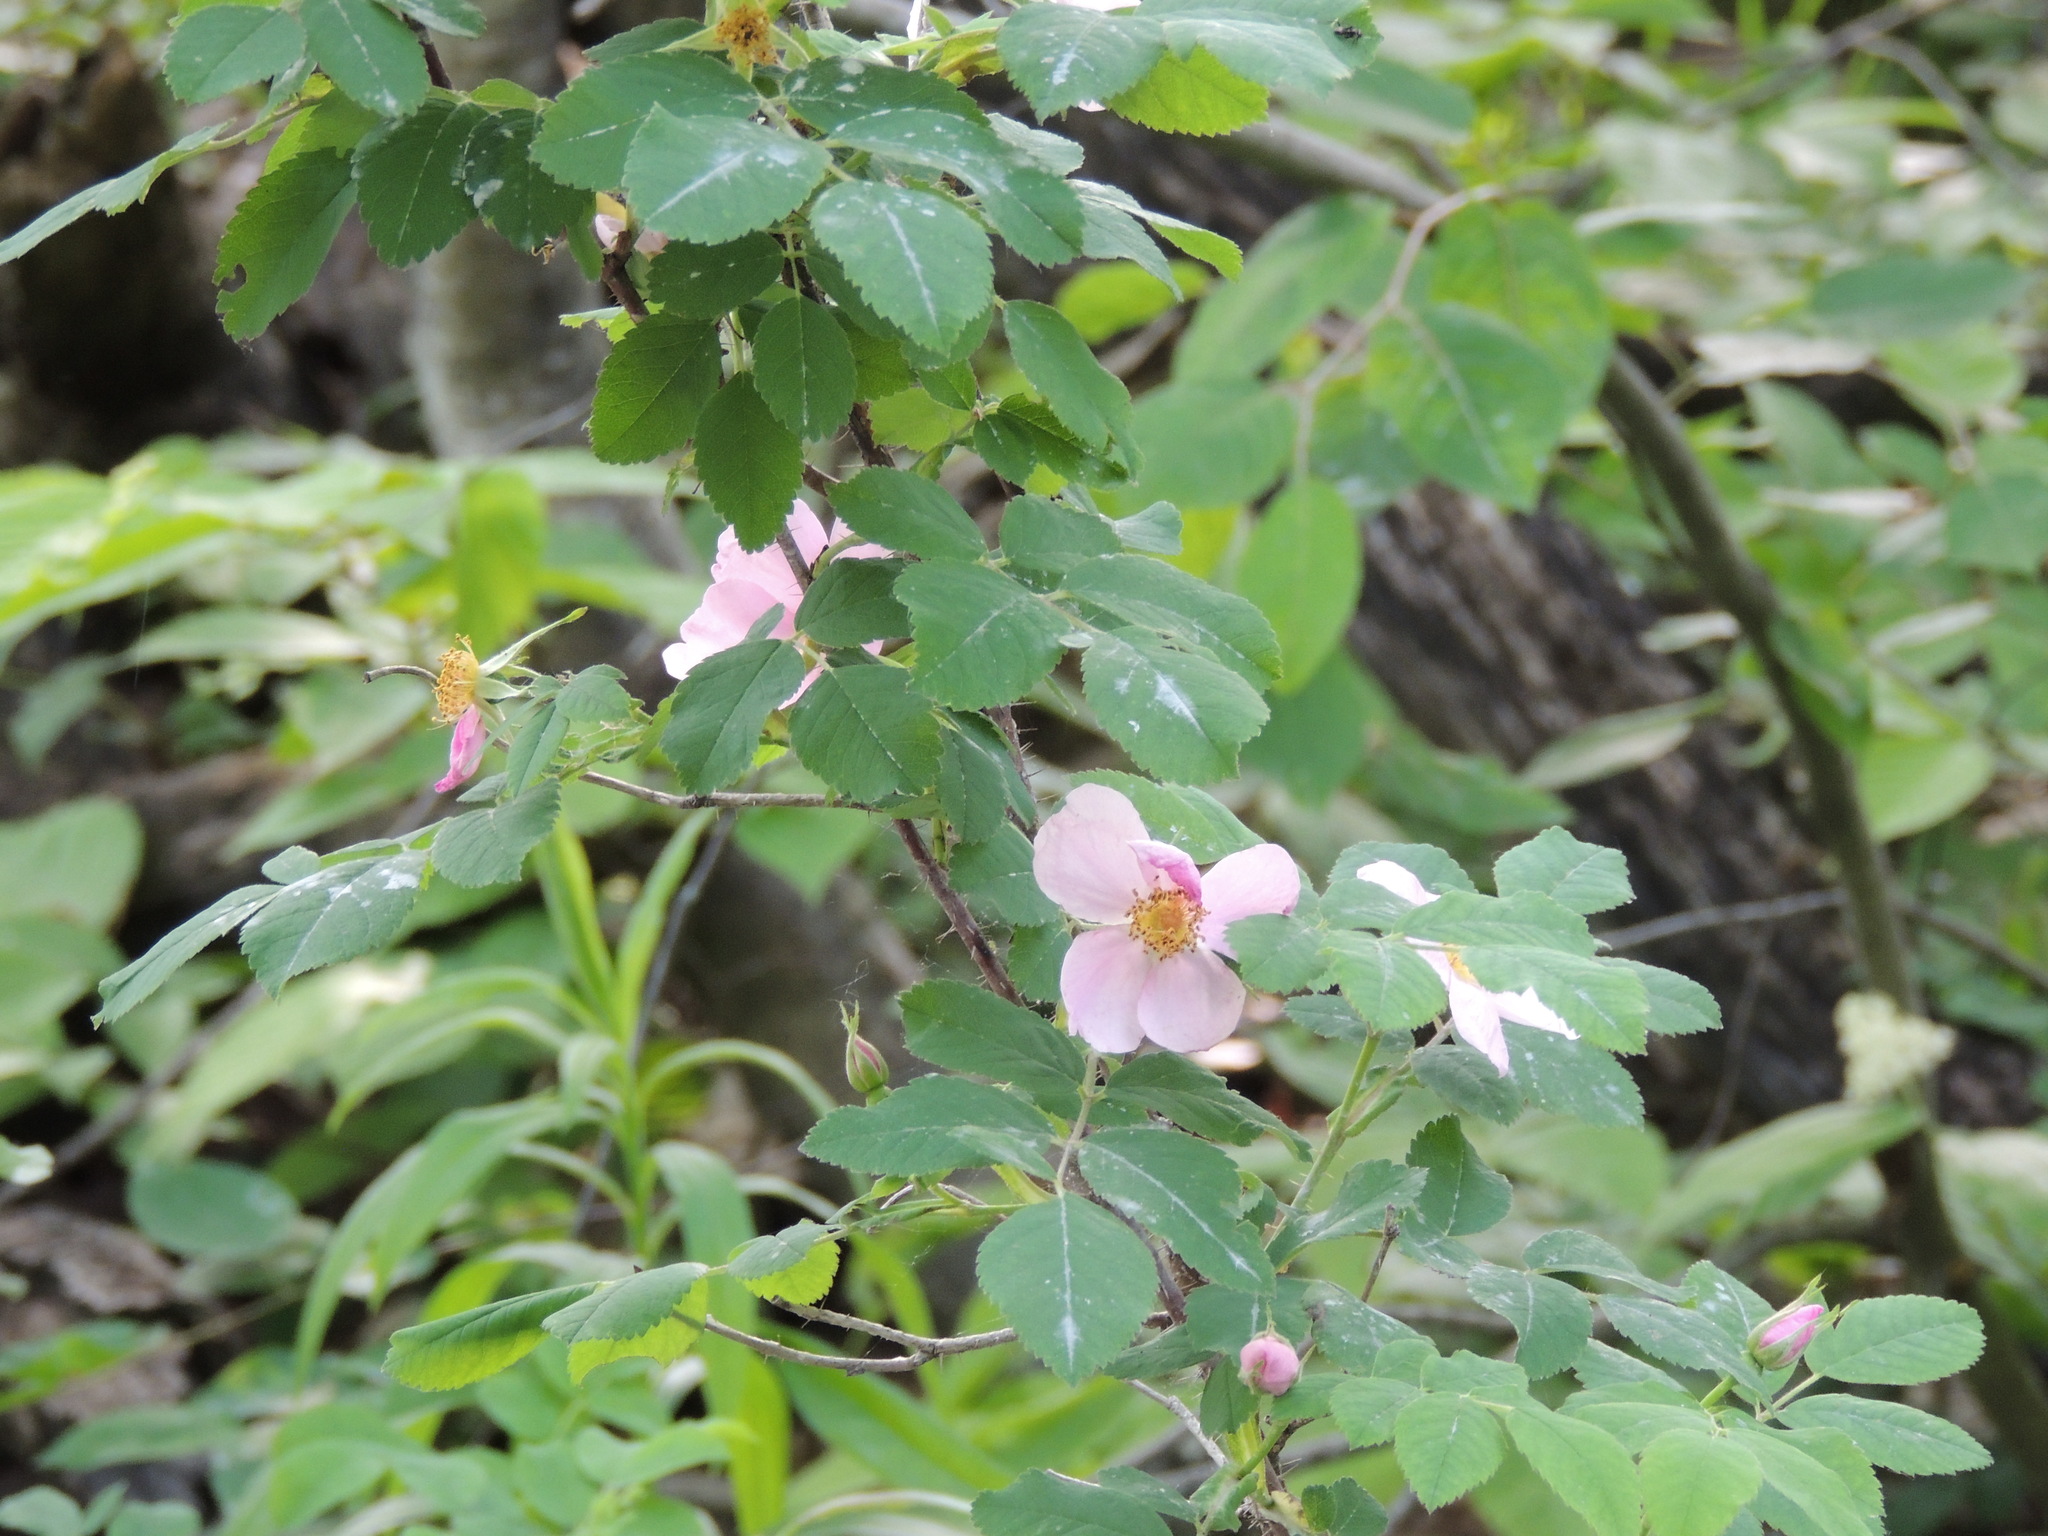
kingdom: Plantae
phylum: Tracheophyta
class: Magnoliopsida
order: Rosales
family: Rosaceae
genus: Rosa
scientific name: Rosa acicularis
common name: Prickly rose
